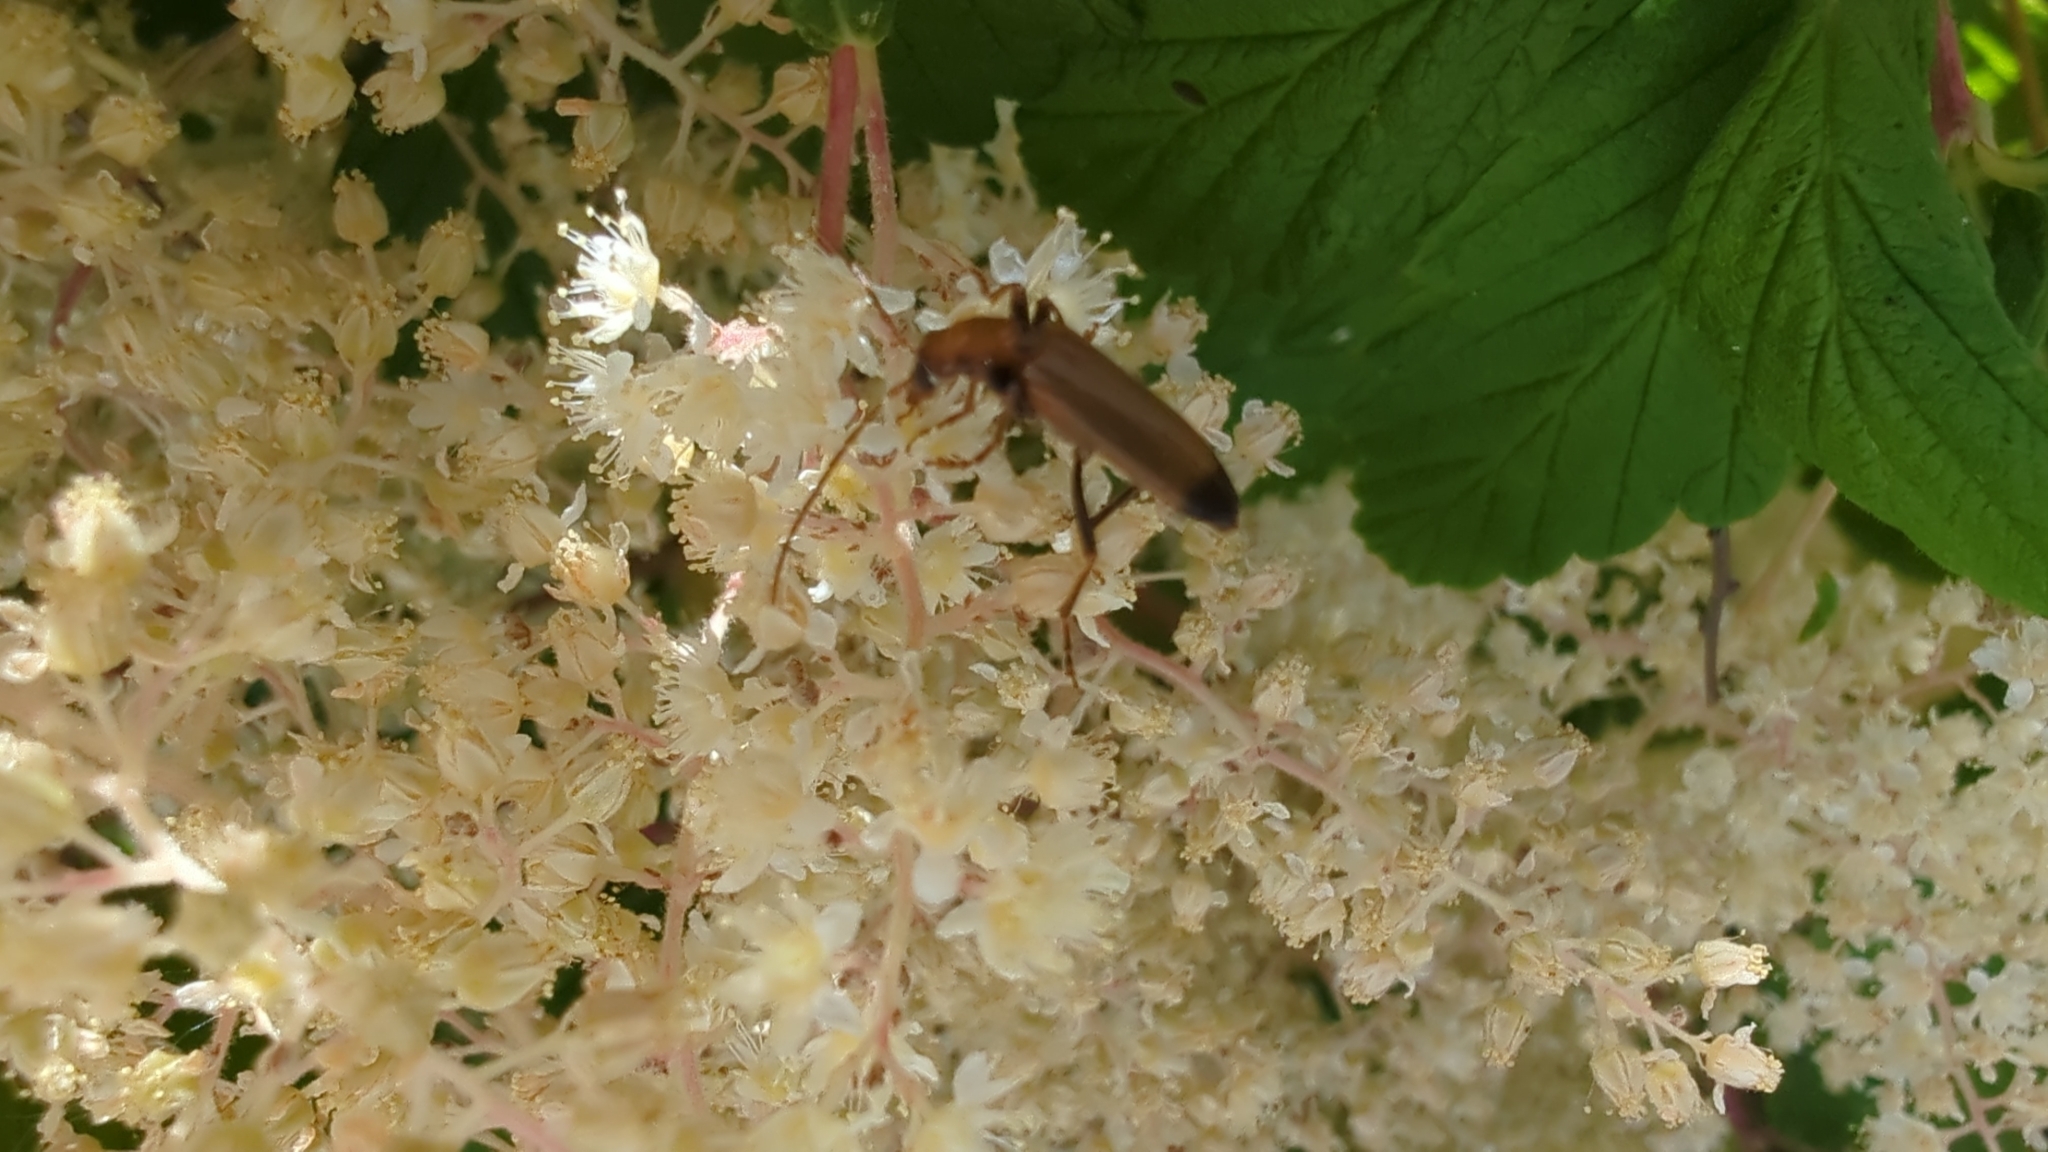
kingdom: Animalia
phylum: Arthropoda
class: Insecta
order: Coleoptera
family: Oedemeridae
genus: Nacerdes
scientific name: Nacerdes melanura
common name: Wharf borer
